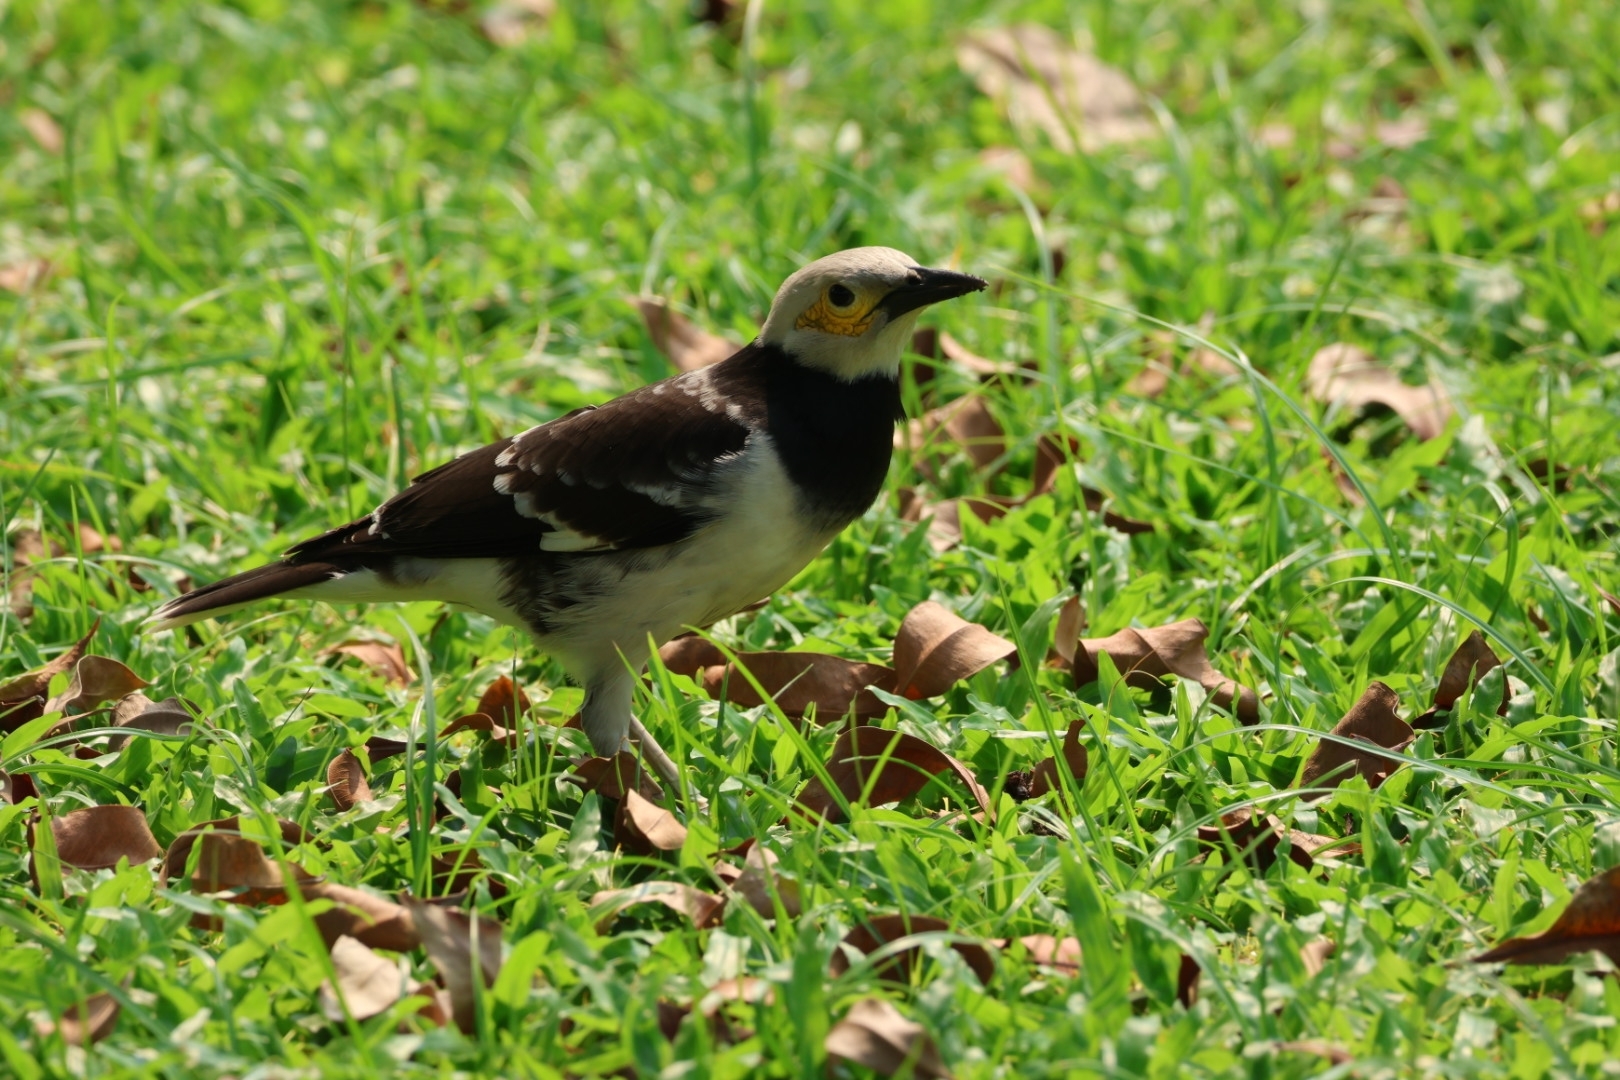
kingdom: Animalia
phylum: Chordata
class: Aves
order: Passeriformes
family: Sturnidae
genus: Gracupica
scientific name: Gracupica nigricollis
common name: Black-collared starling
